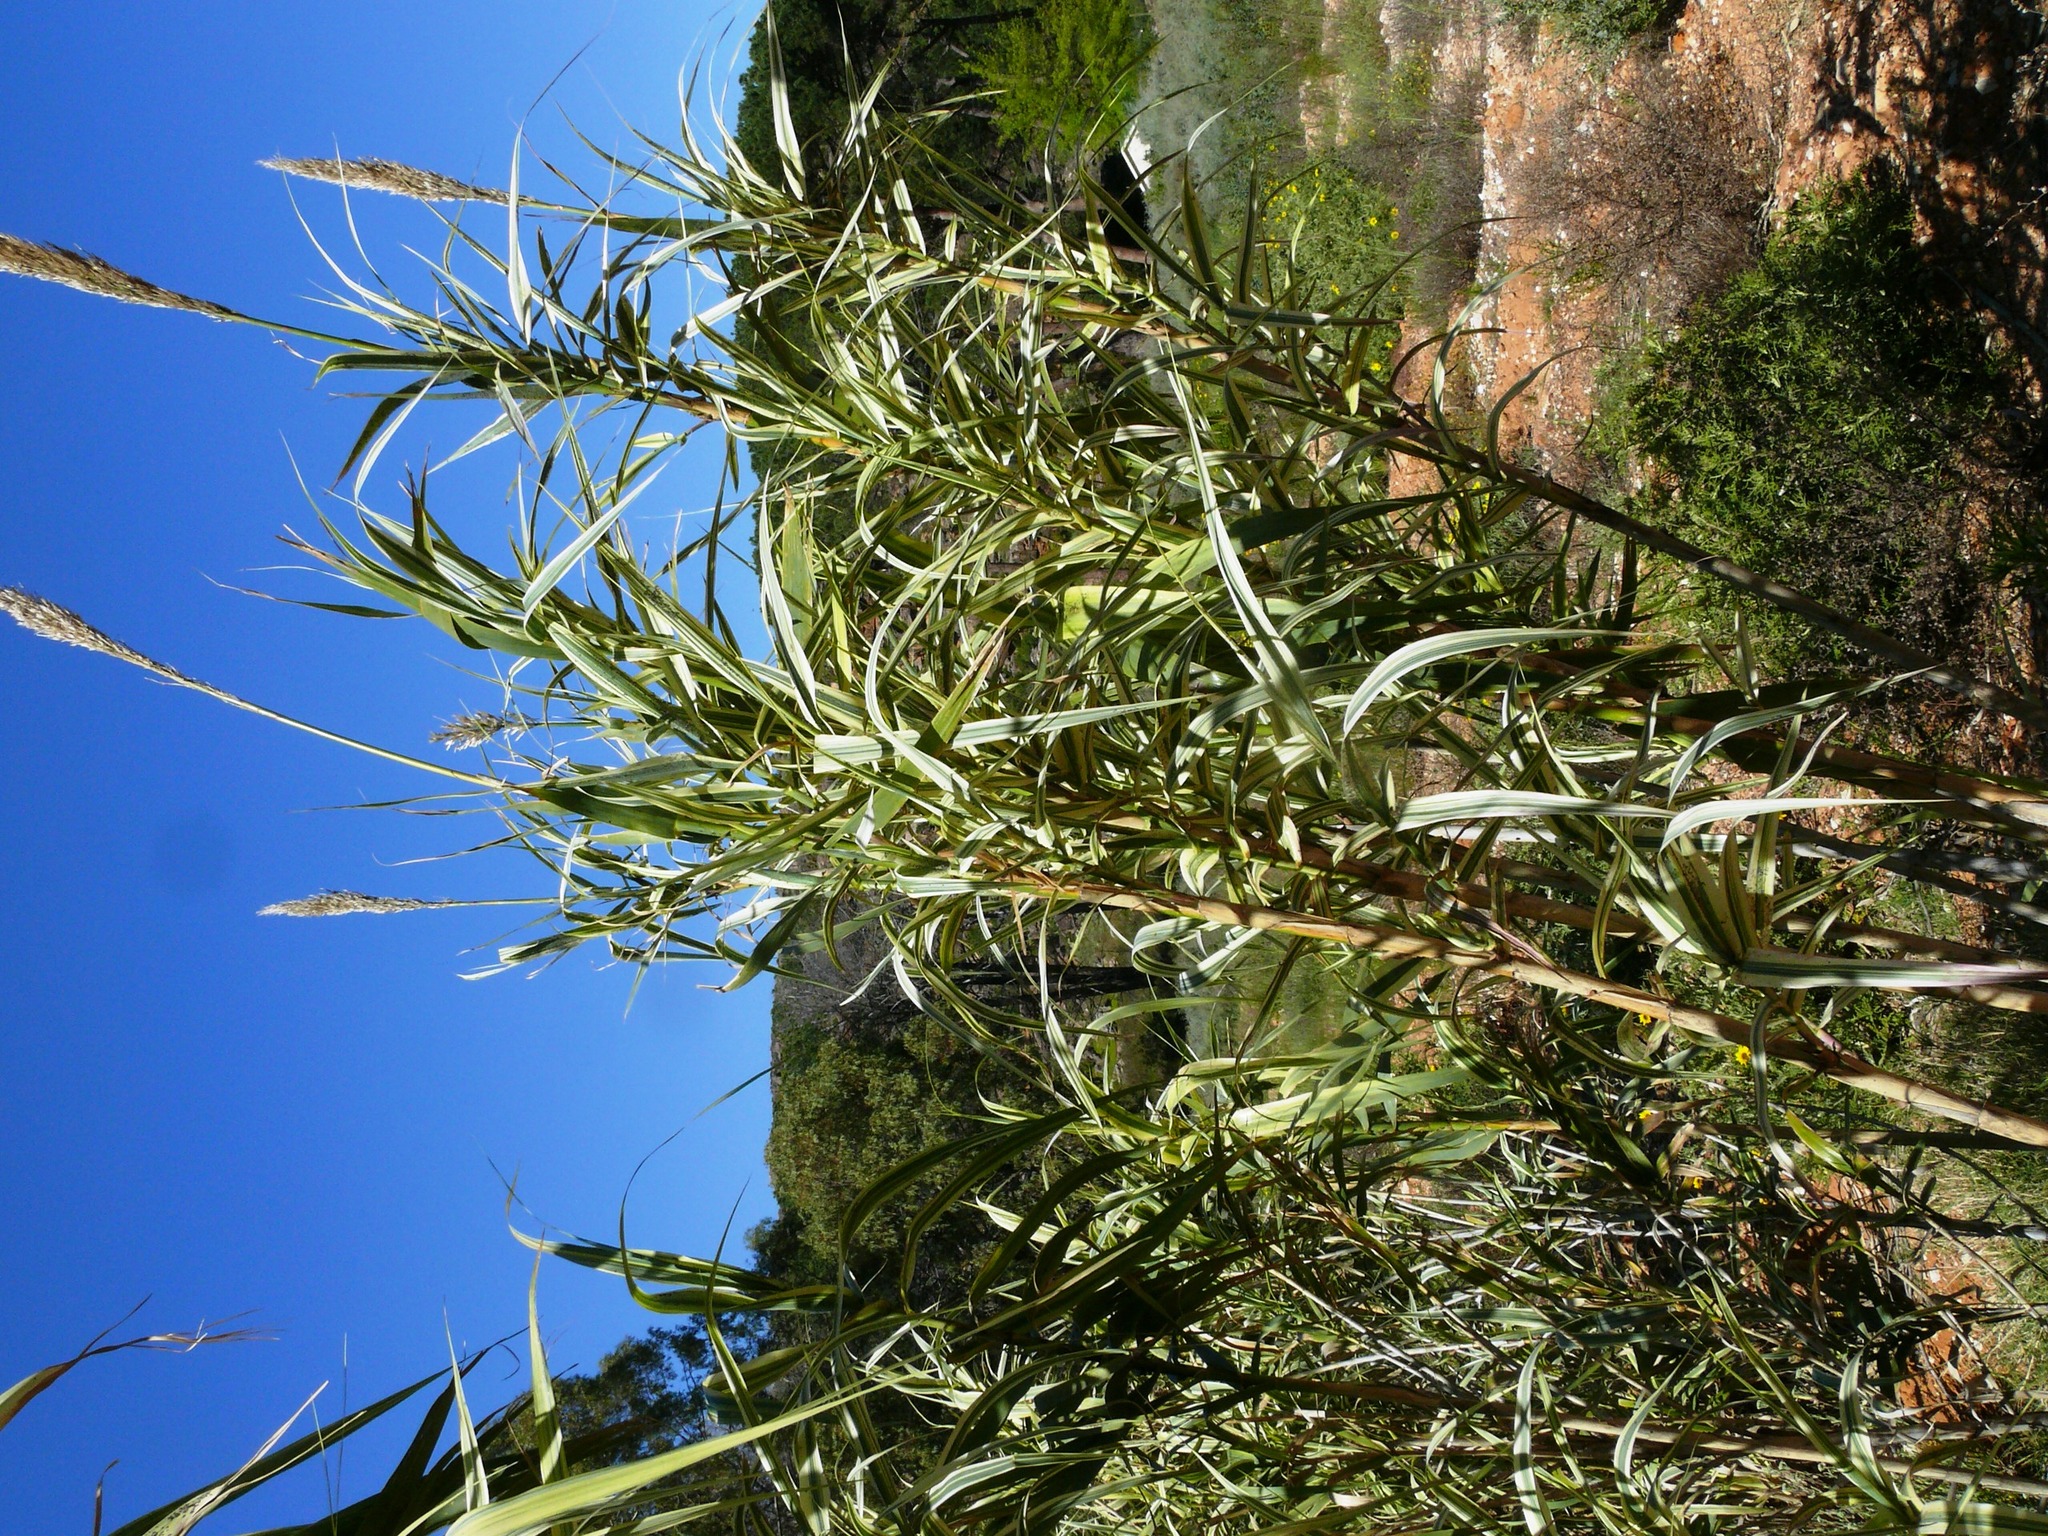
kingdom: Plantae
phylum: Tracheophyta
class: Liliopsida
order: Poales
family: Poaceae
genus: Arundo
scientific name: Arundo donax
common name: Giant reed
